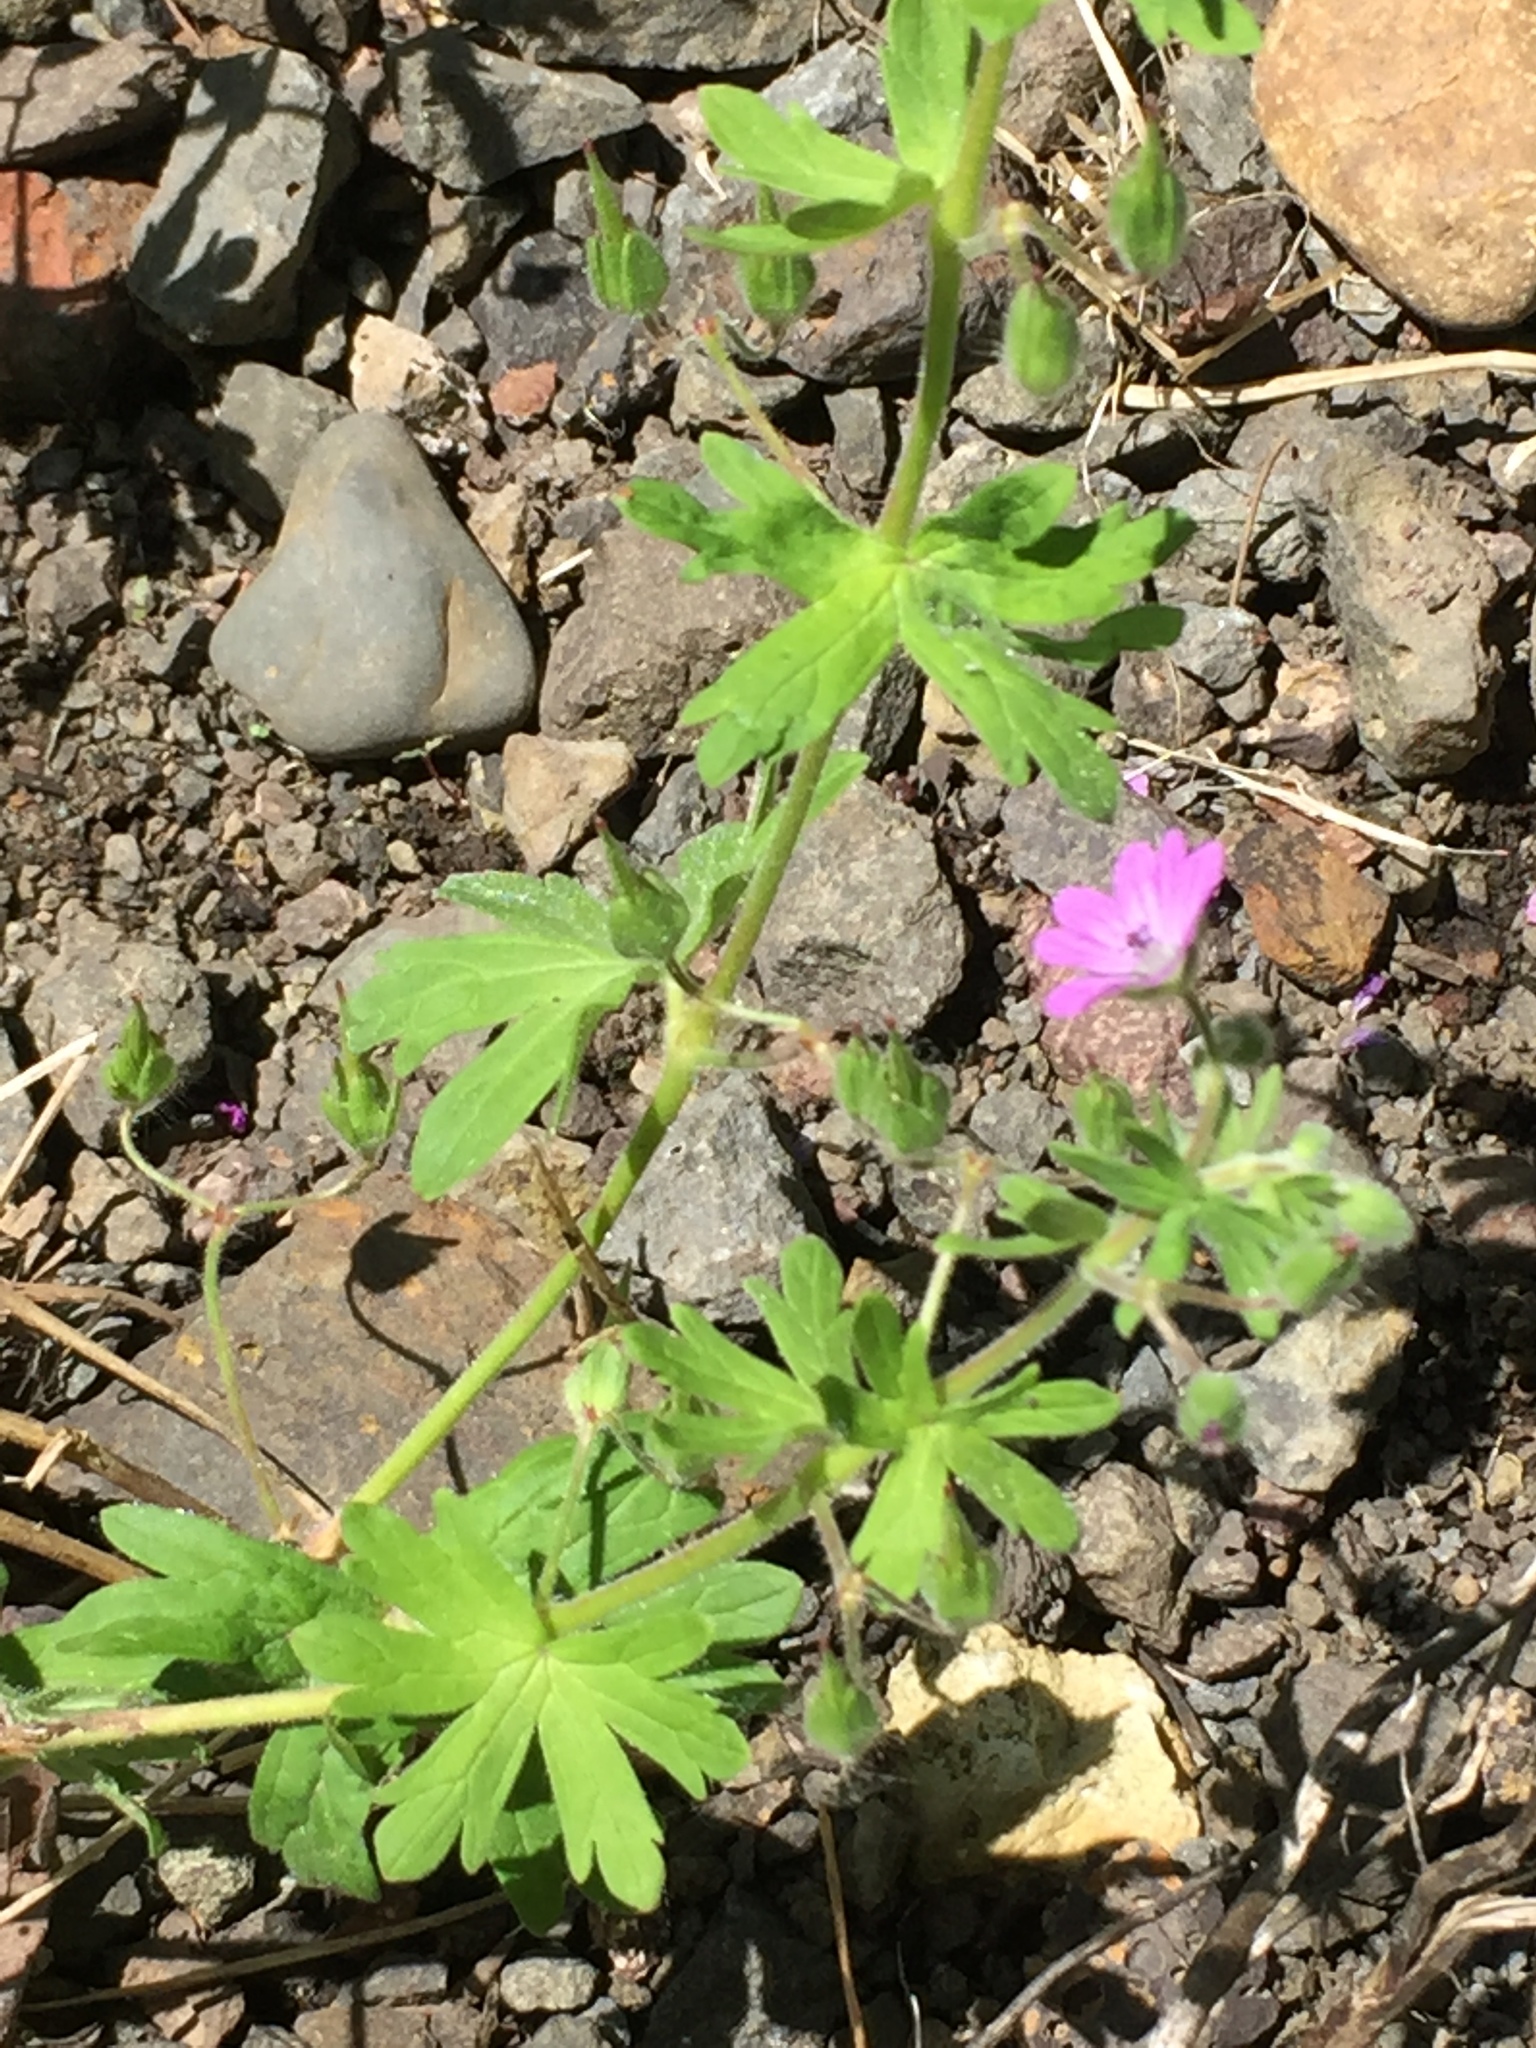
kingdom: Plantae
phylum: Tracheophyta
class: Magnoliopsida
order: Geraniales
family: Geraniaceae
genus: Geranium
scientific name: Geranium molle
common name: Dove's-foot crane's-bill
